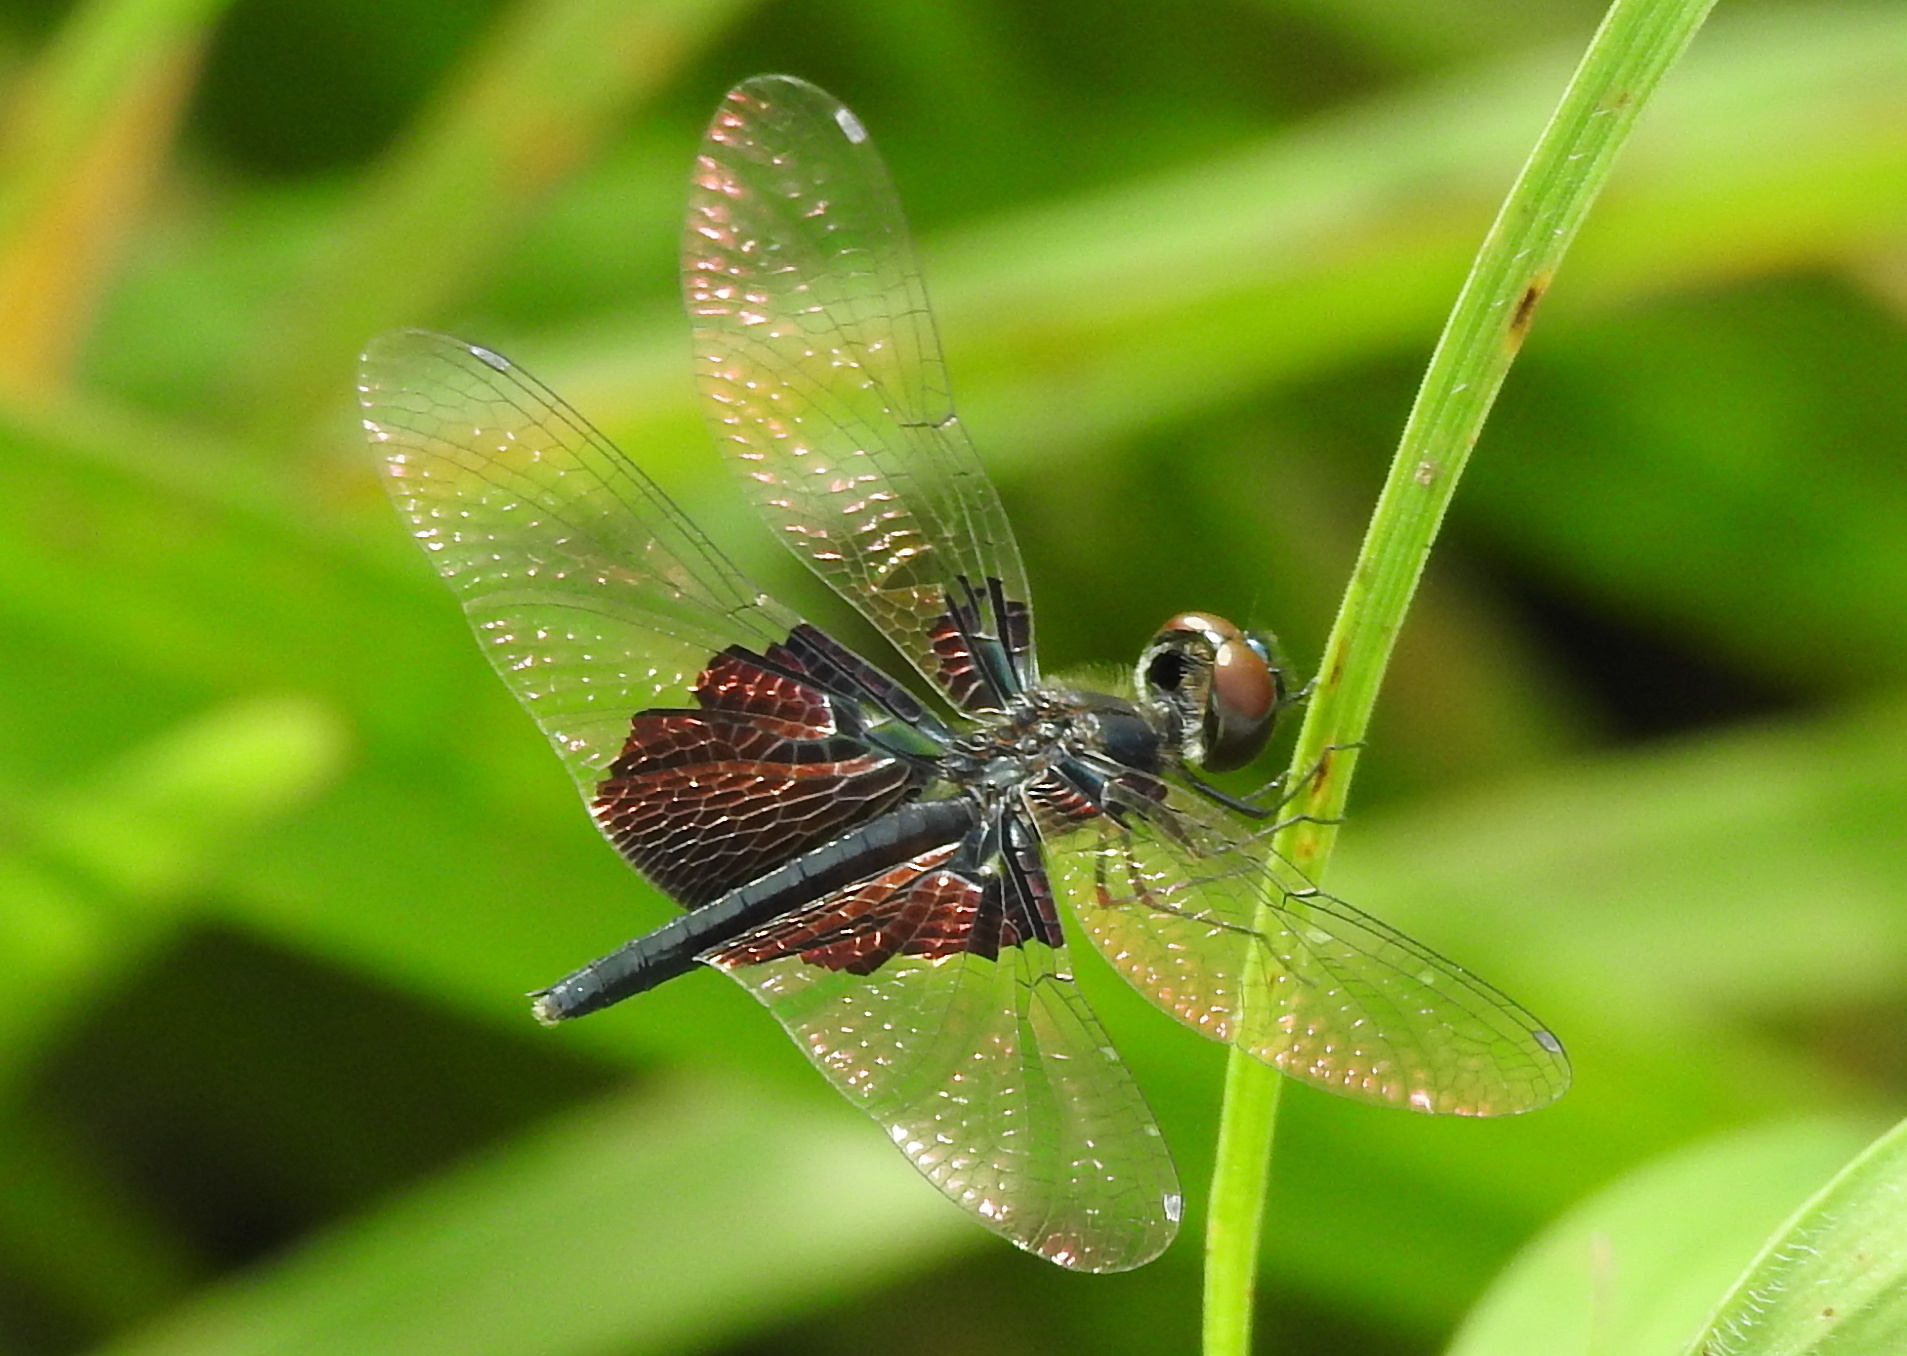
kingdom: Animalia
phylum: Arthropoda
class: Insecta
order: Odonata
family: Libellulidae
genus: Rhyothemis
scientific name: Rhyothemis triangularis
